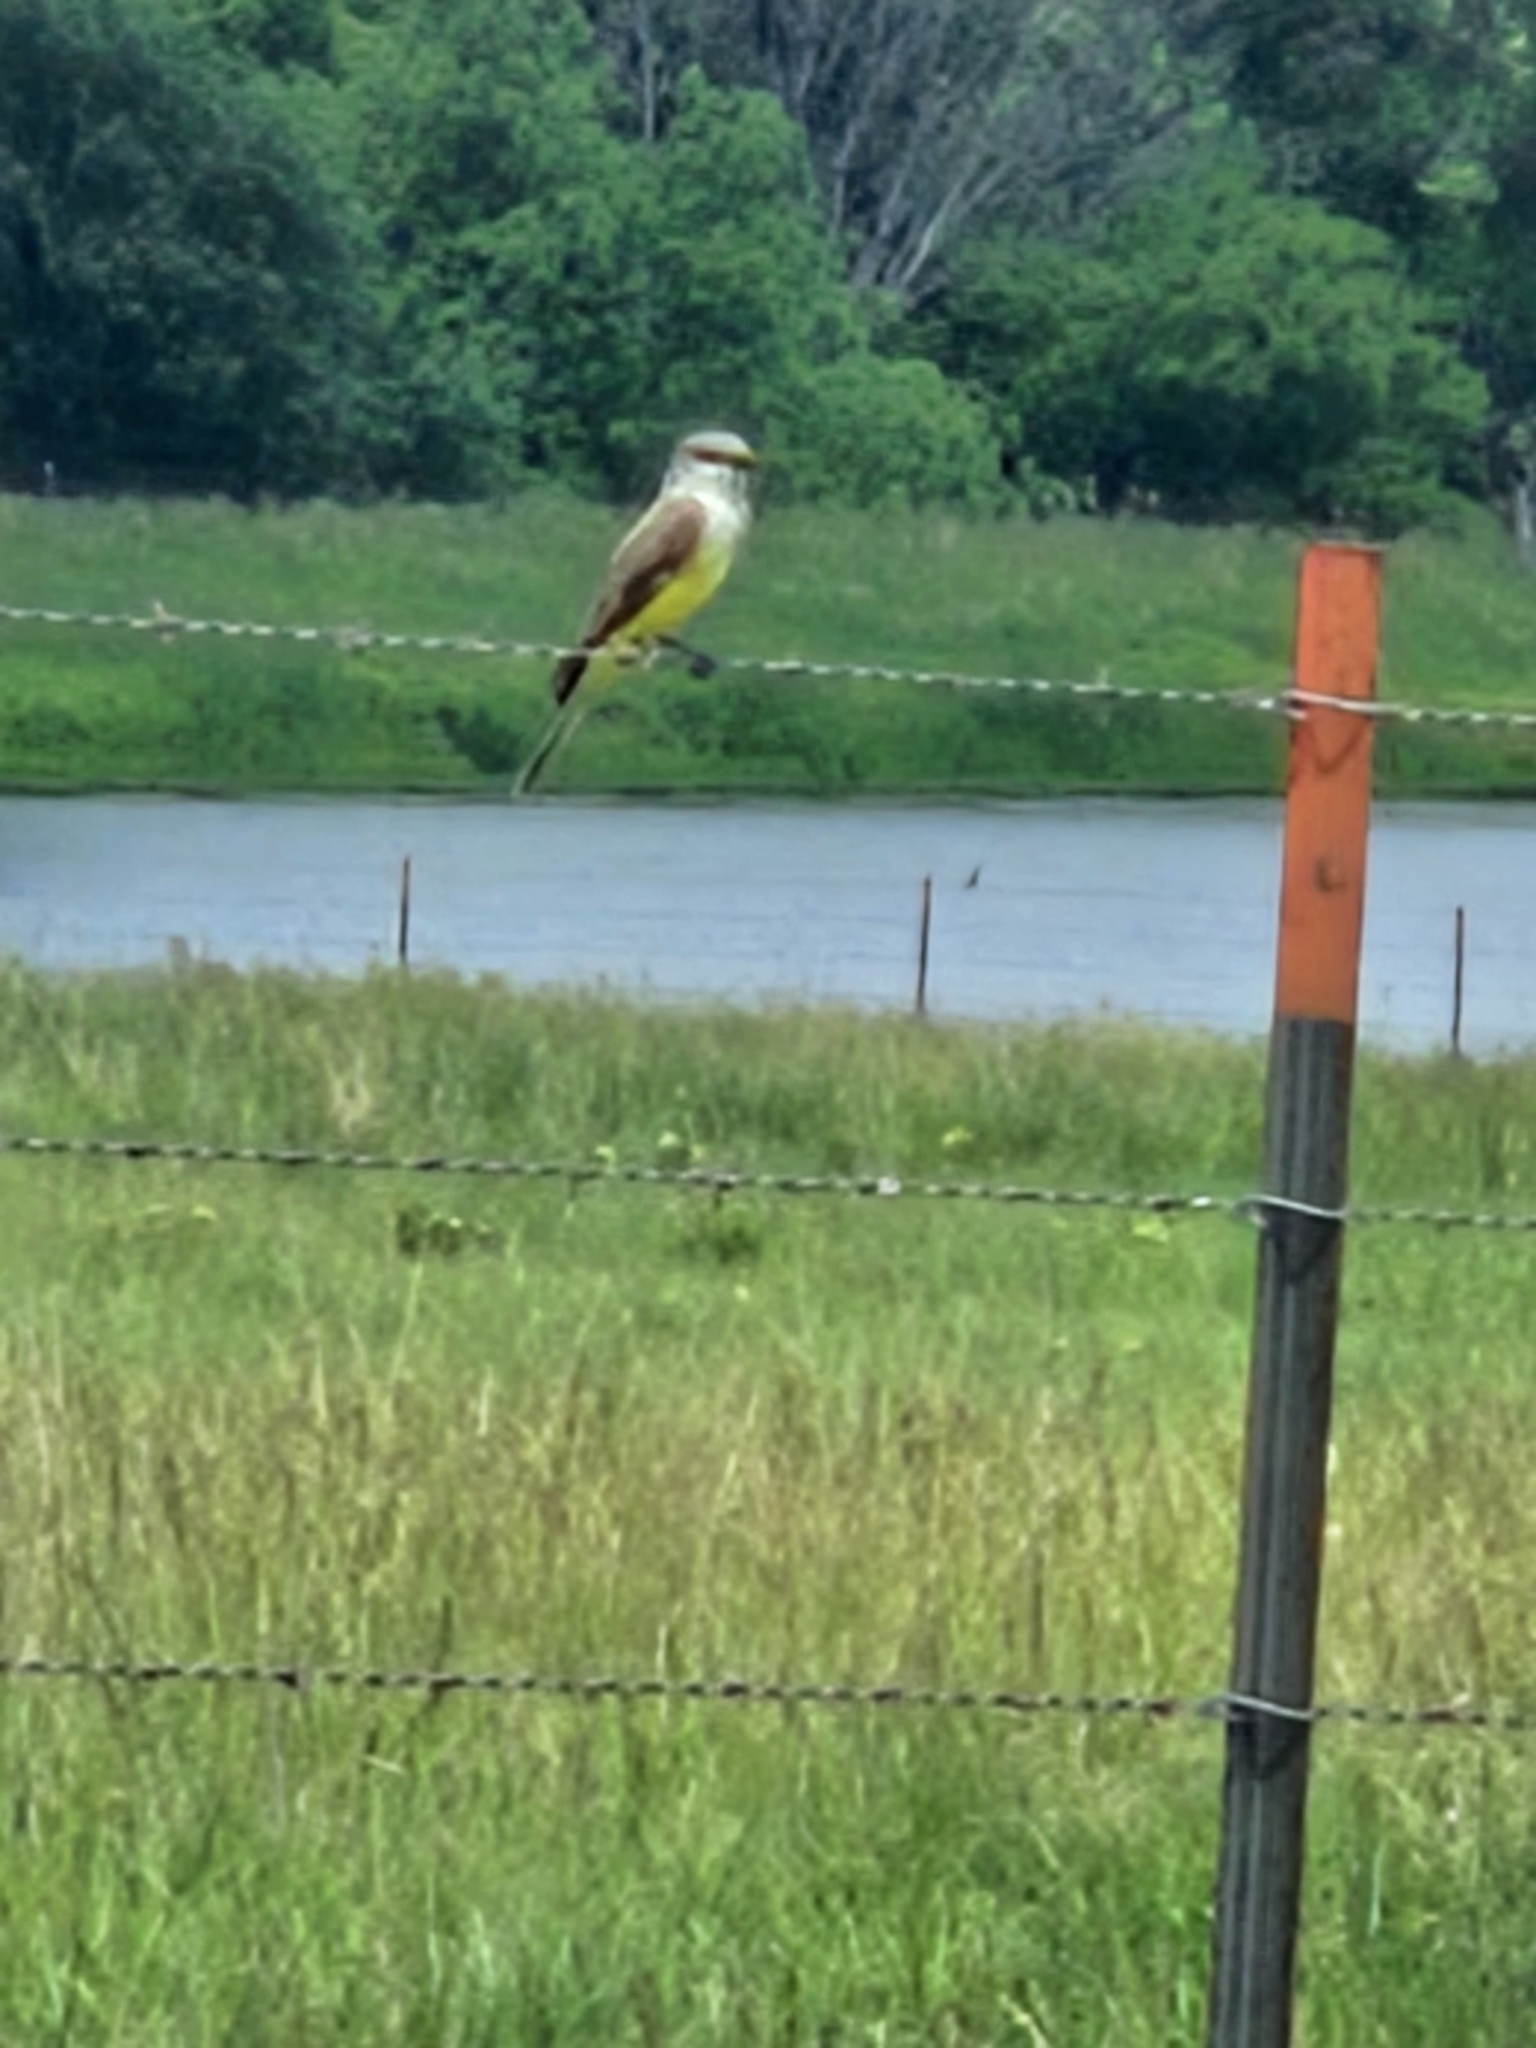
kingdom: Animalia
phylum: Chordata
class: Aves
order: Passeriformes
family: Tyrannidae
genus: Tyrannus
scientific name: Tyrannus verticalis
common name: Western kingbird
